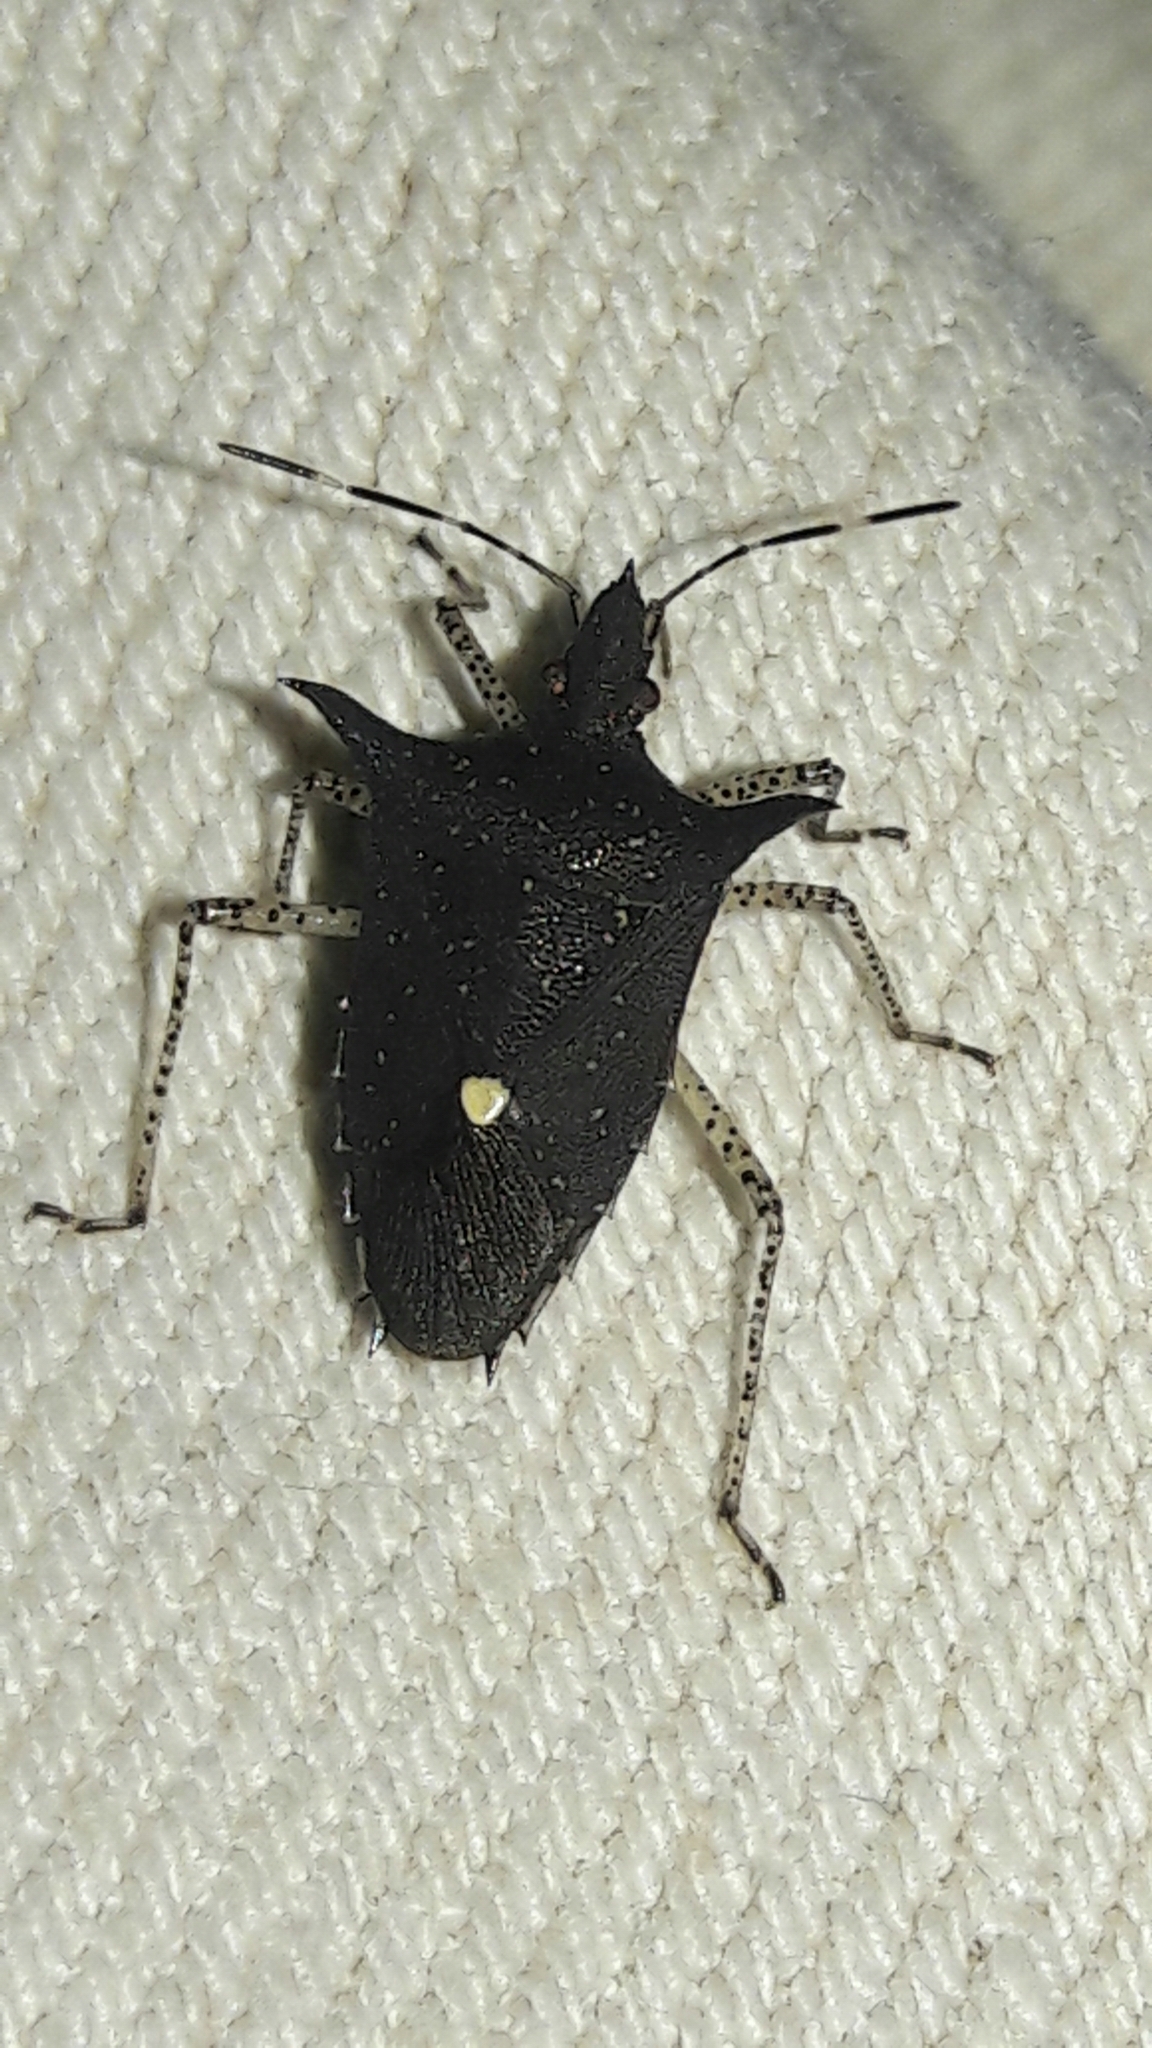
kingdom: Animalia
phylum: Arthropoda
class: Insecta
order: Hemiptera
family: Pentatomidae
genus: Proxys
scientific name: Proxys albopunctulatus
